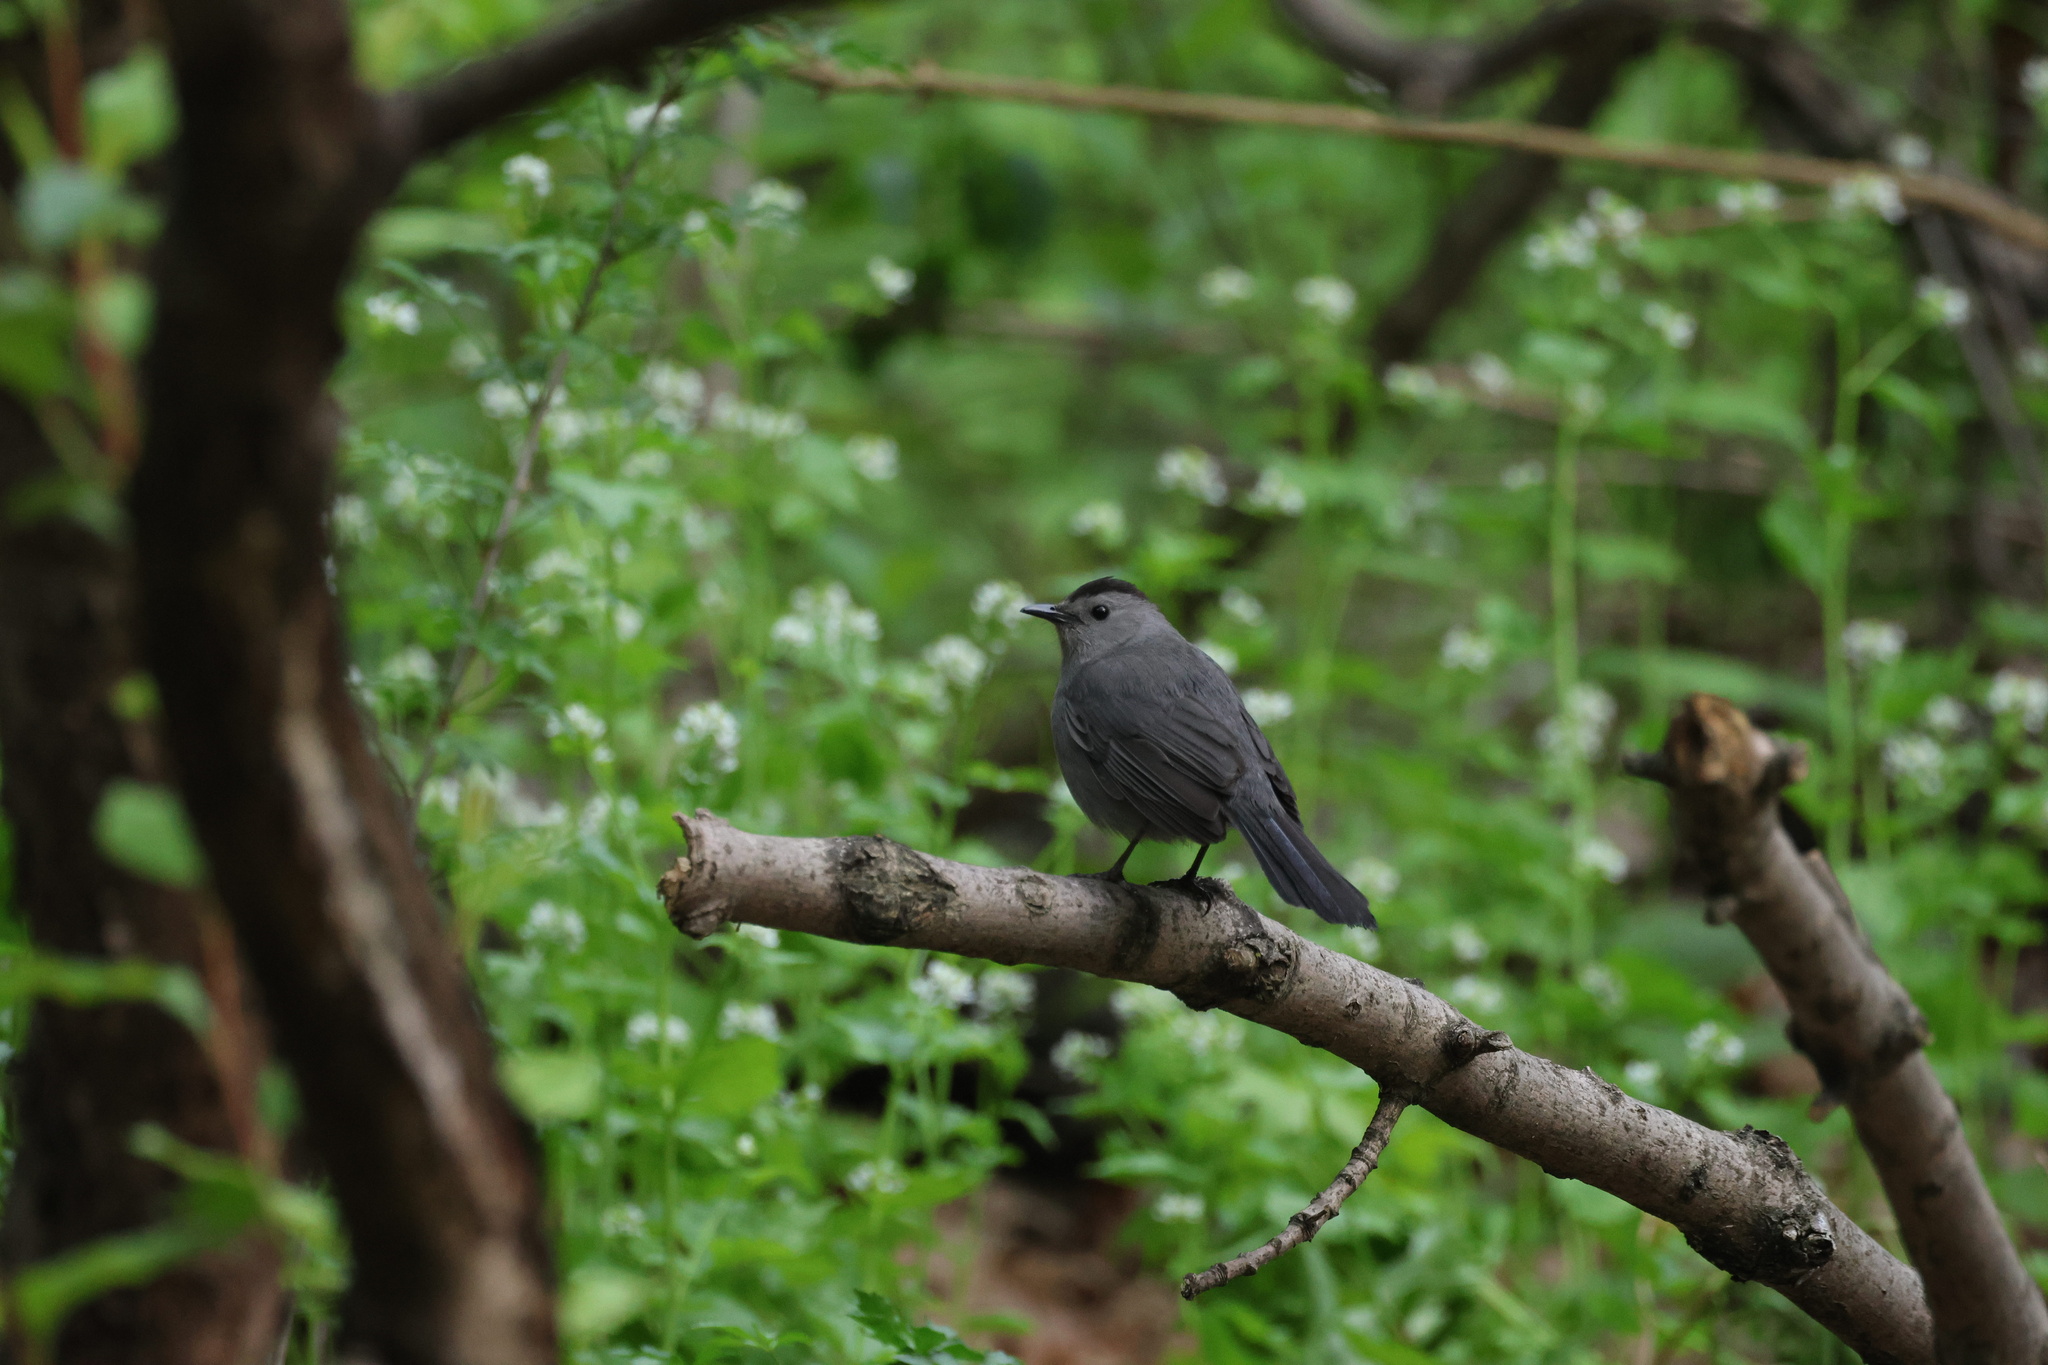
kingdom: Animalia
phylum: Chordata
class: Aves
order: Passeriformes
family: Mimidae
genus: Dumetella
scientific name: Dumetella carolinensis
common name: Gray catbird
